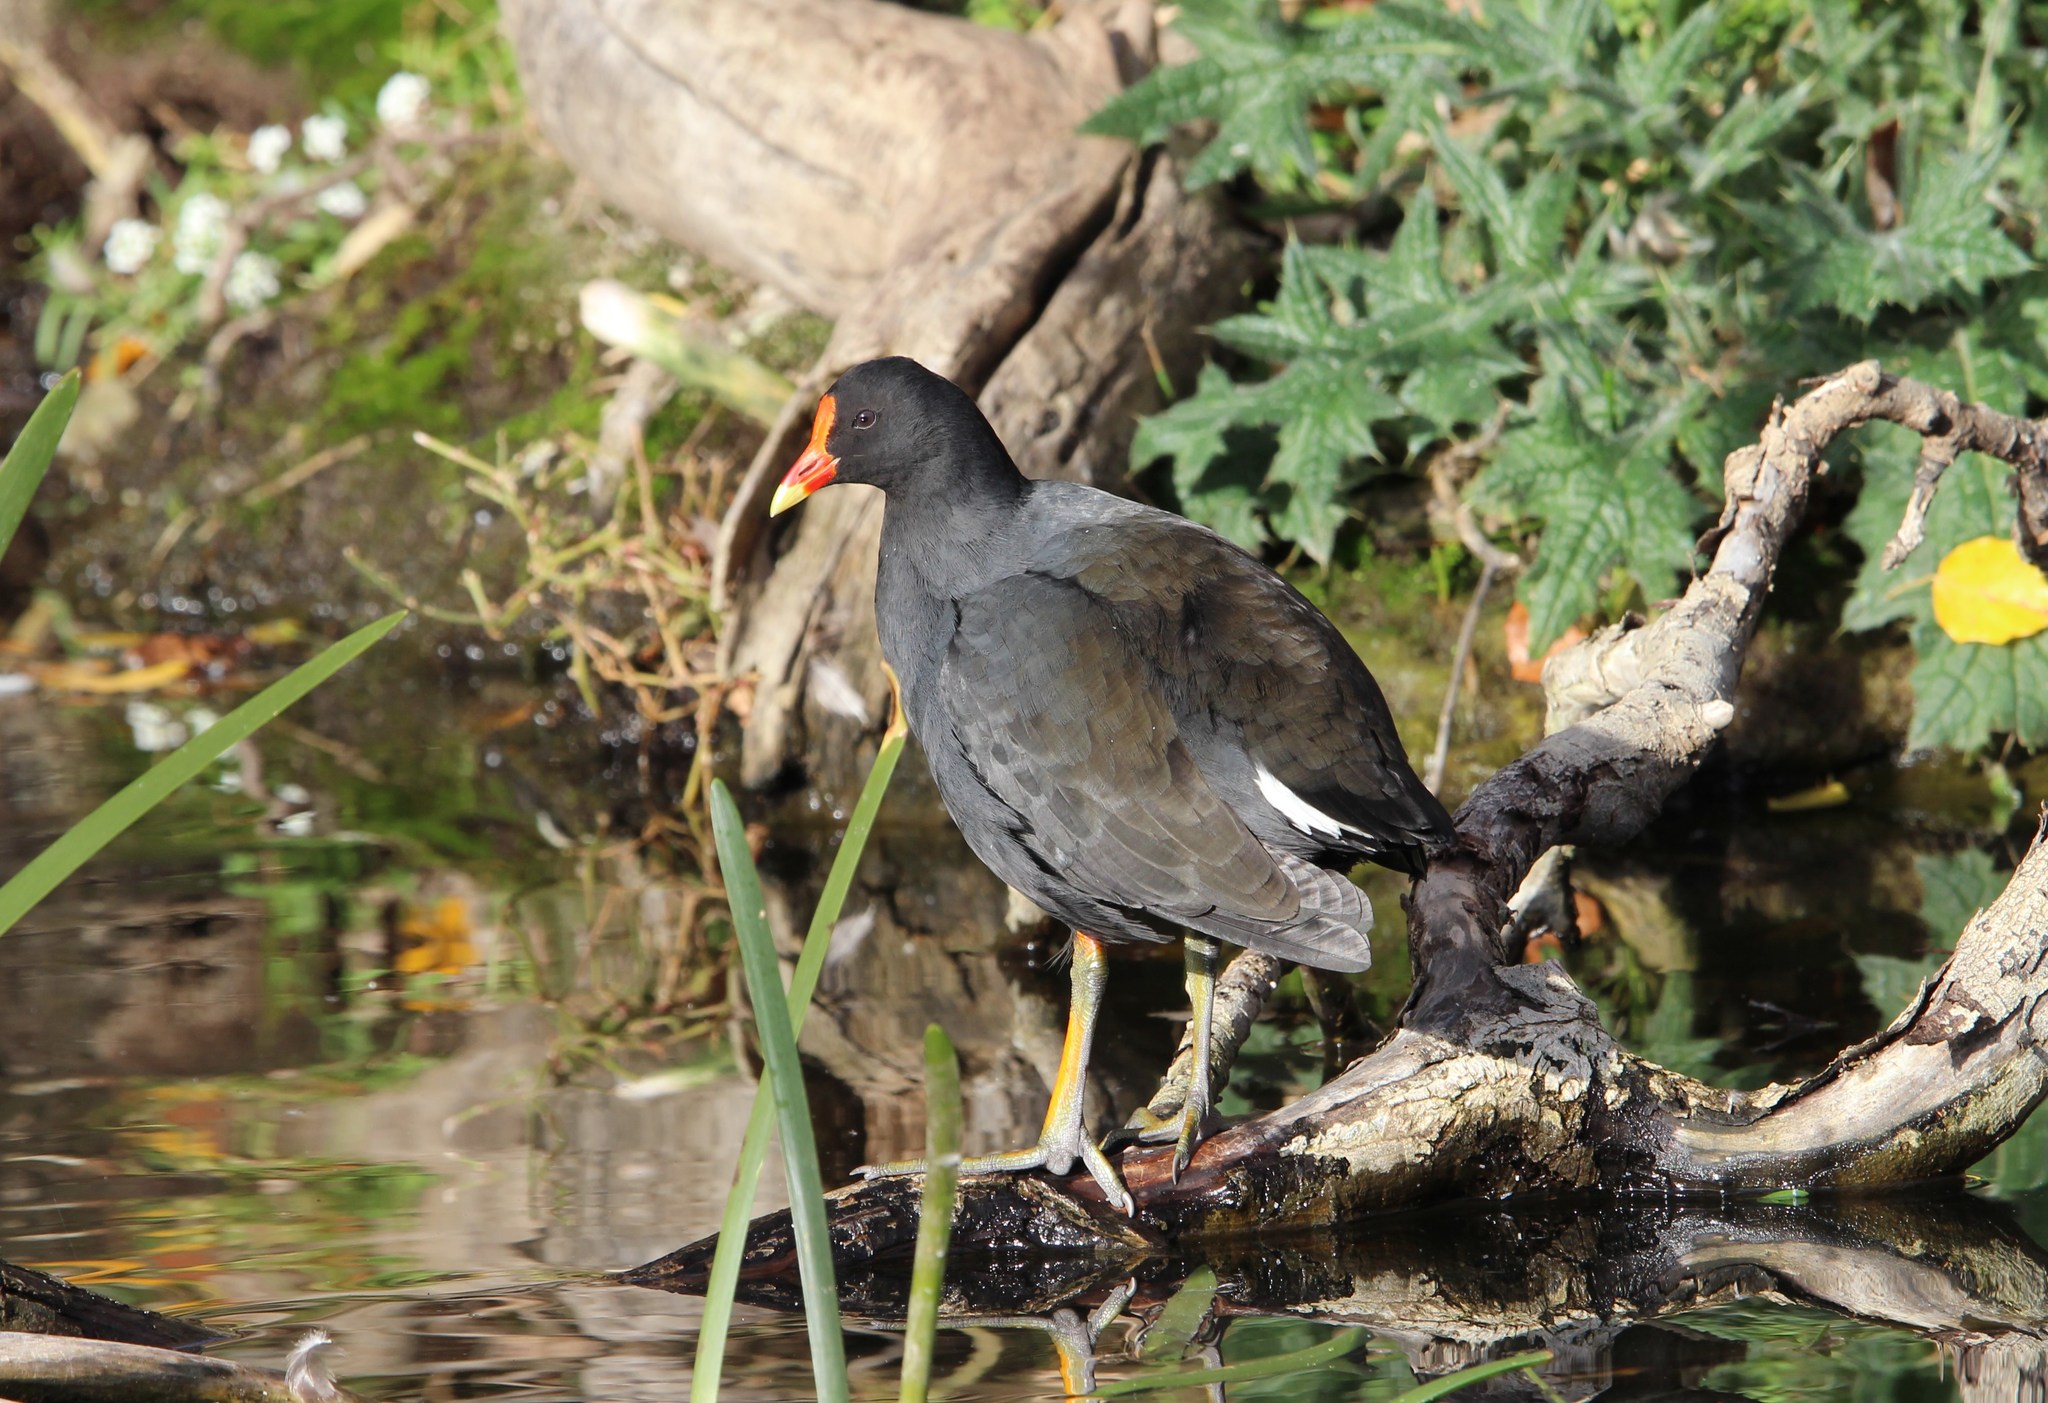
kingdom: Animalia
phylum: Chordata
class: Aves
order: Gruiformes
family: Rallidae
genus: Gallinula
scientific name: Gallinula tenebrosa
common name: Dusky moorhen
